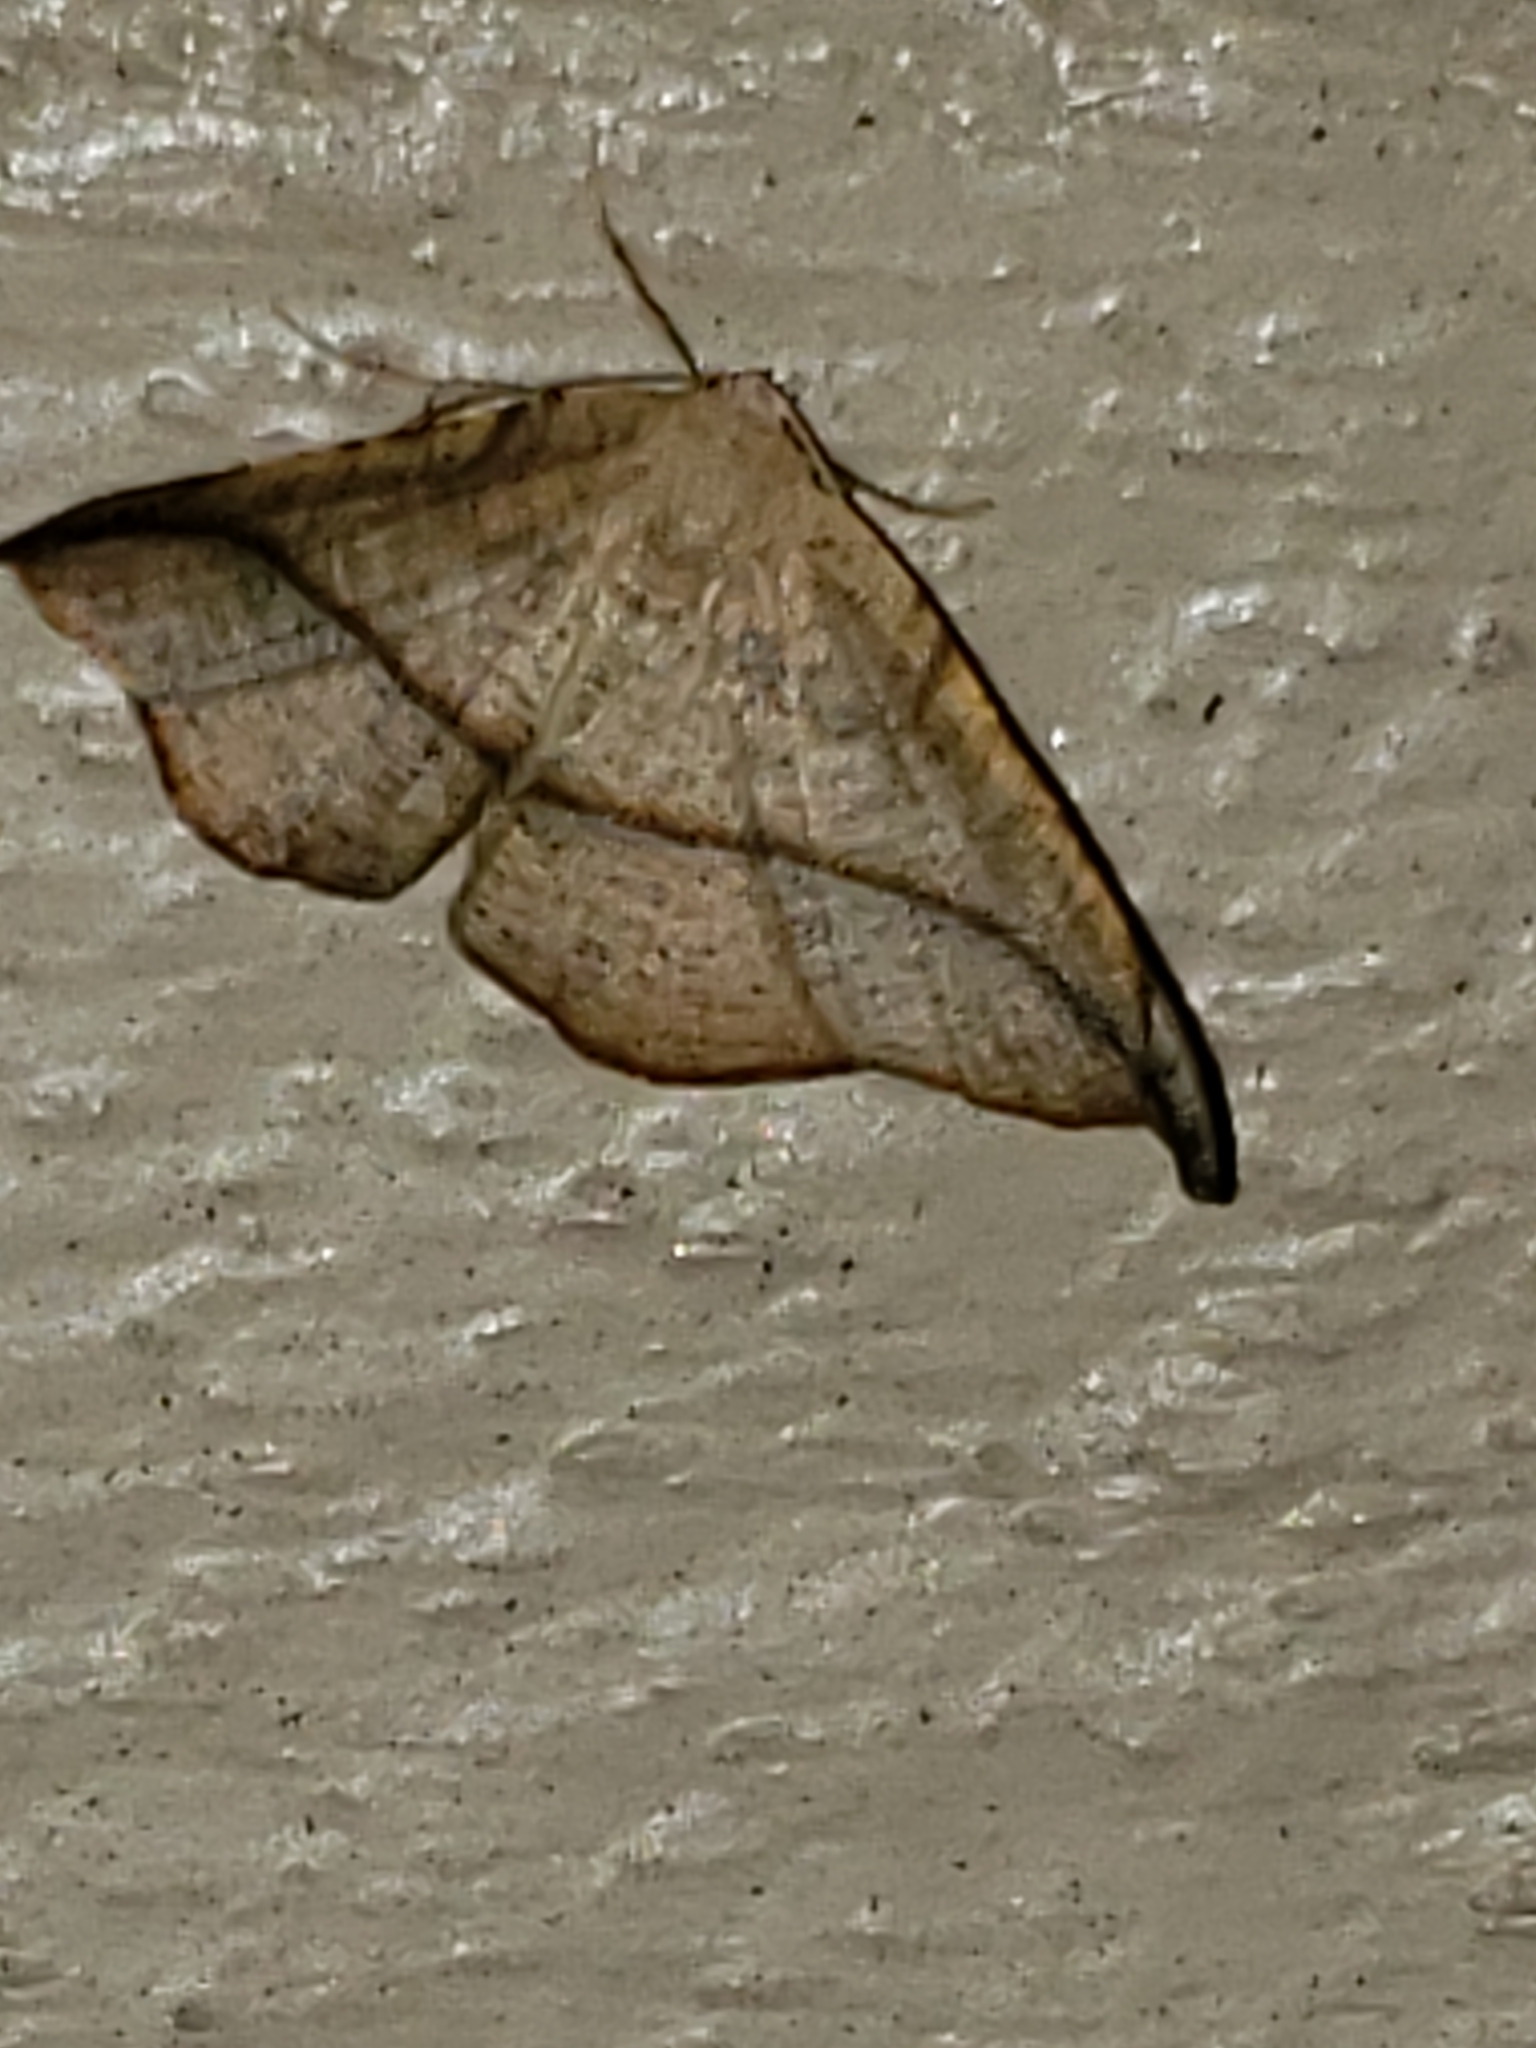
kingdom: Animalia
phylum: Arthropoda
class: Insecta
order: Lepidoptera
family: Geometridae
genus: Patalene
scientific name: Patalene olyzonaria
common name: Juniper geometer moth
